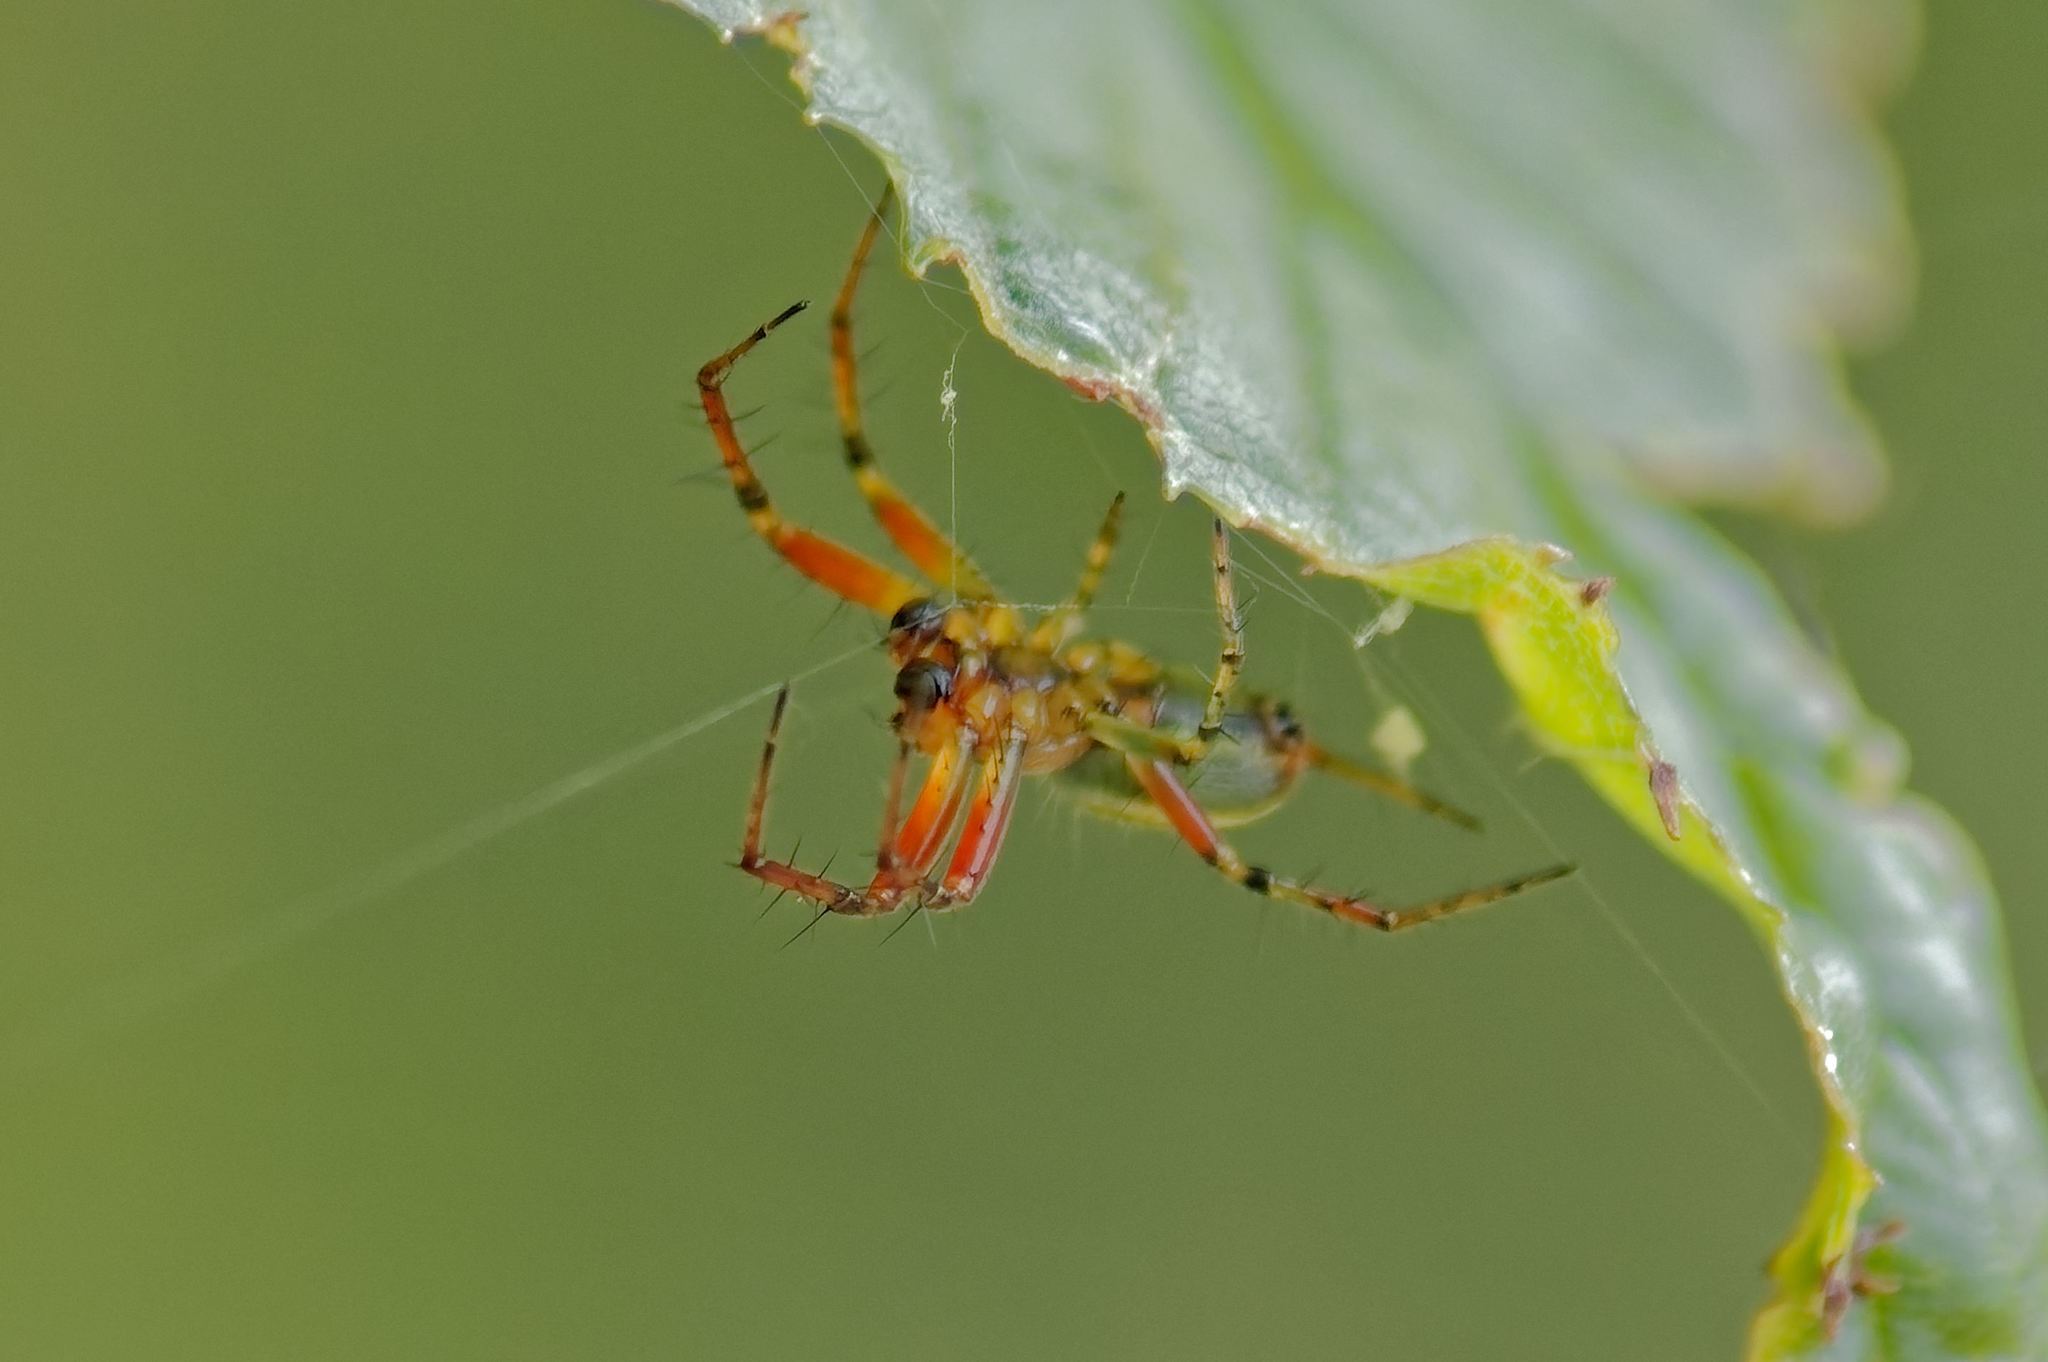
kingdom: Animalia
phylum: Arthropoda
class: Arachnida
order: Araneae
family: Araneidae
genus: Araniella
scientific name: Araniella cucurbitina
